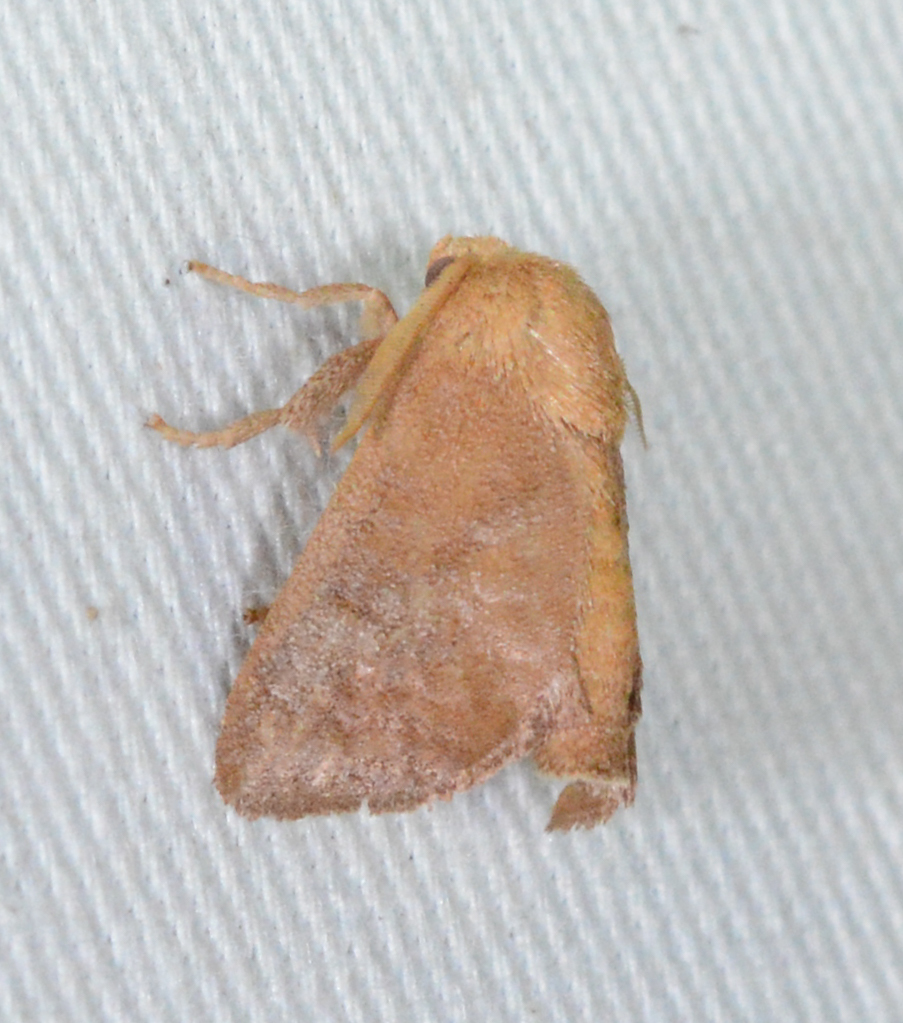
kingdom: Animalia
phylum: Arthropoda
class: Insecta
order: Lepidoptera
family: Limacodidae
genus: Isa
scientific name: Isa textula
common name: Crowned slug moth
